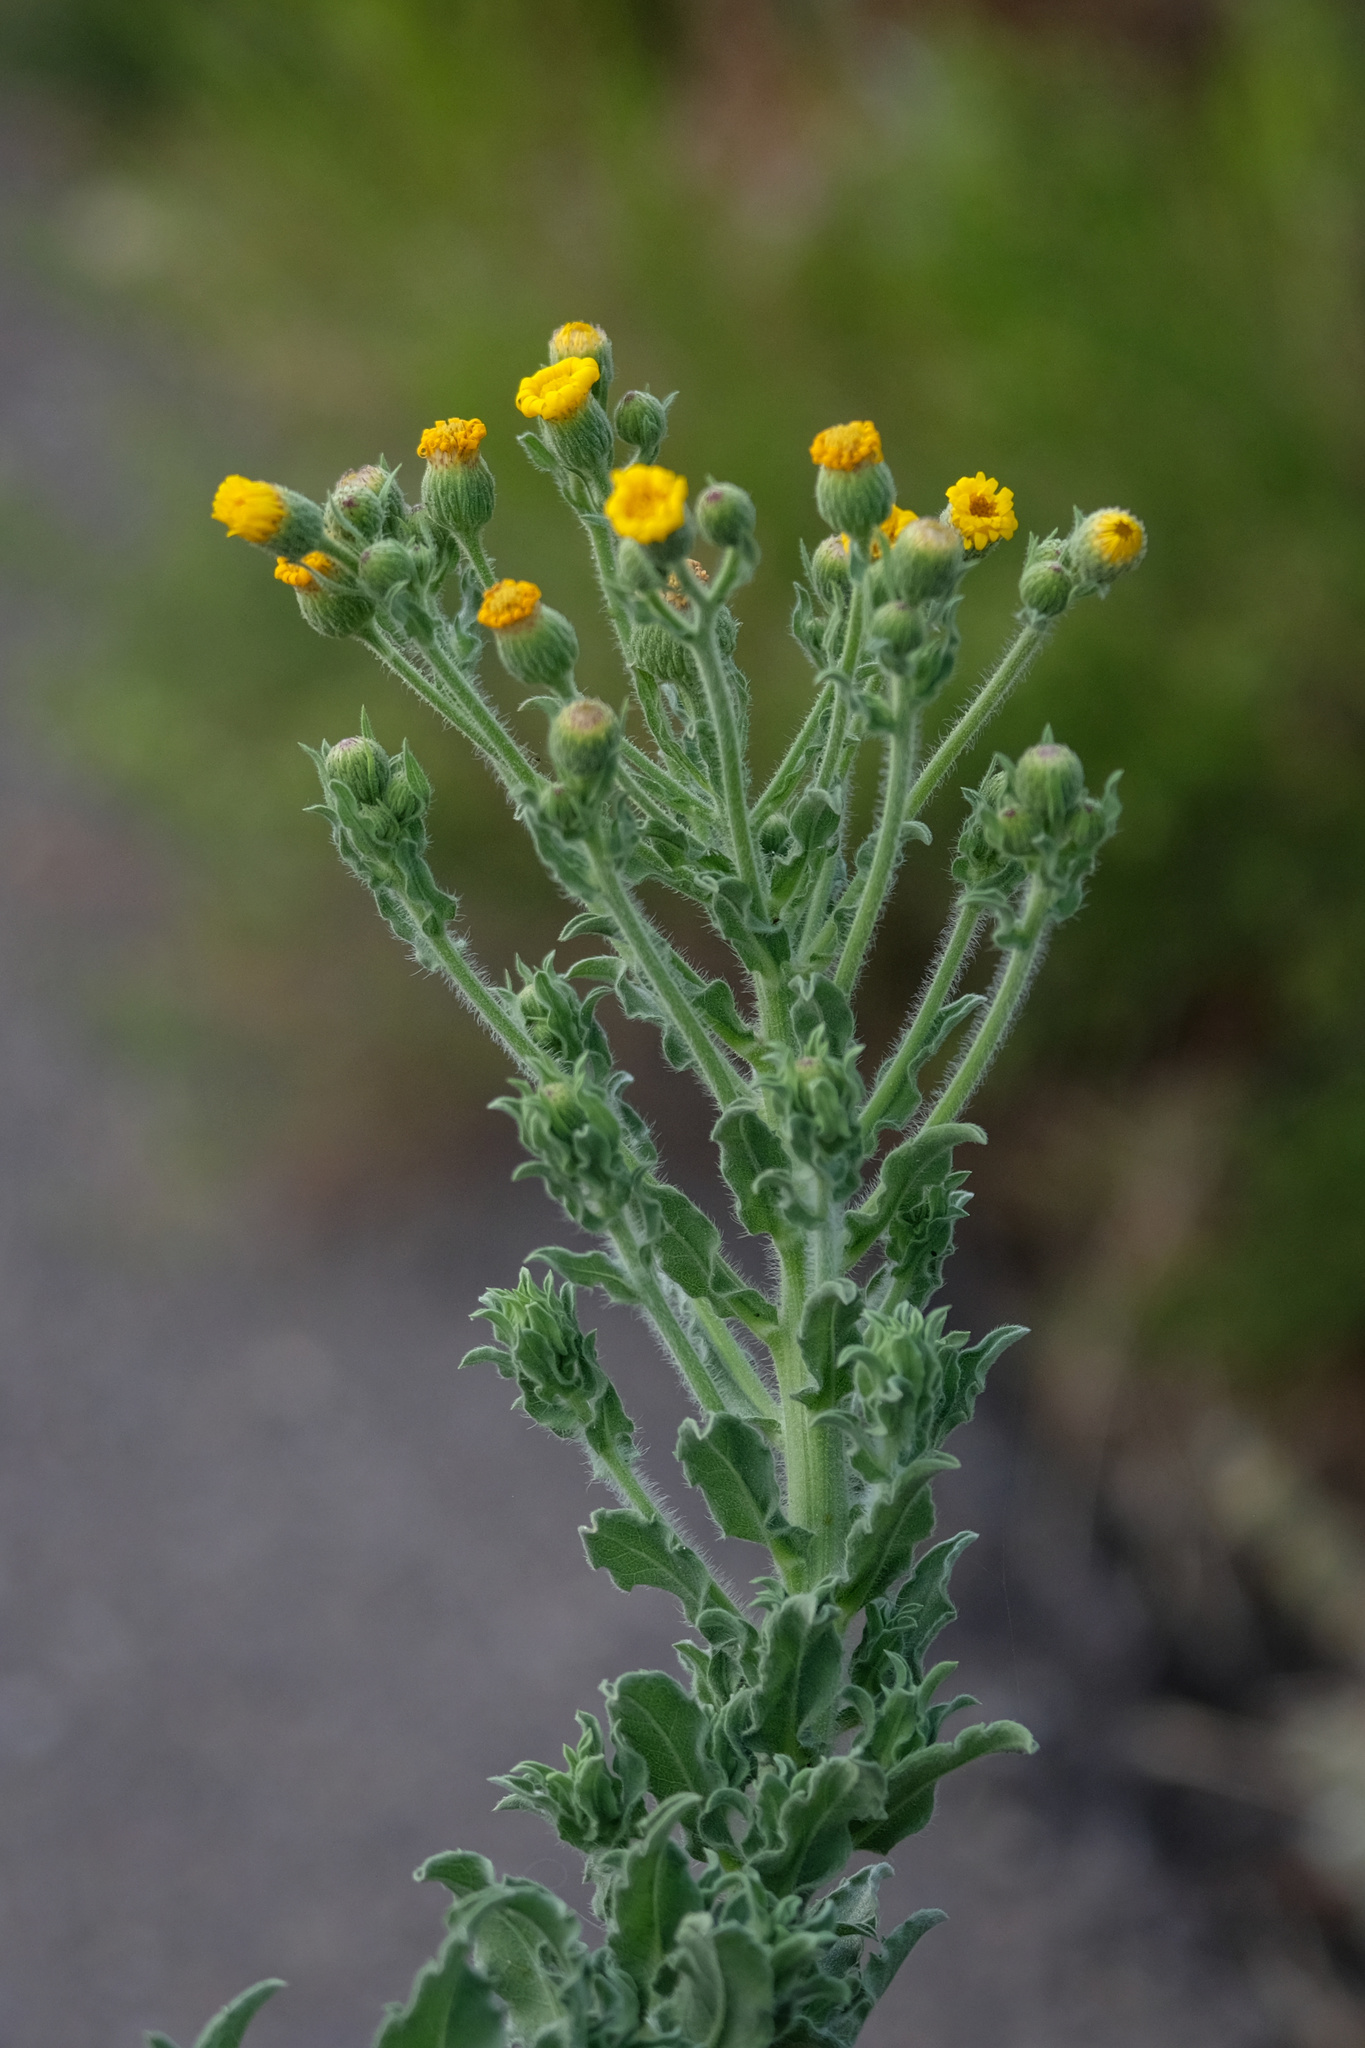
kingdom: Plantae
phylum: Tracheophyta
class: Magnoliopsida
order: Asterales
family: Asteraceae
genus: Heterotheca
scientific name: Heterotheca grandiflora
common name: Telegraphweed
